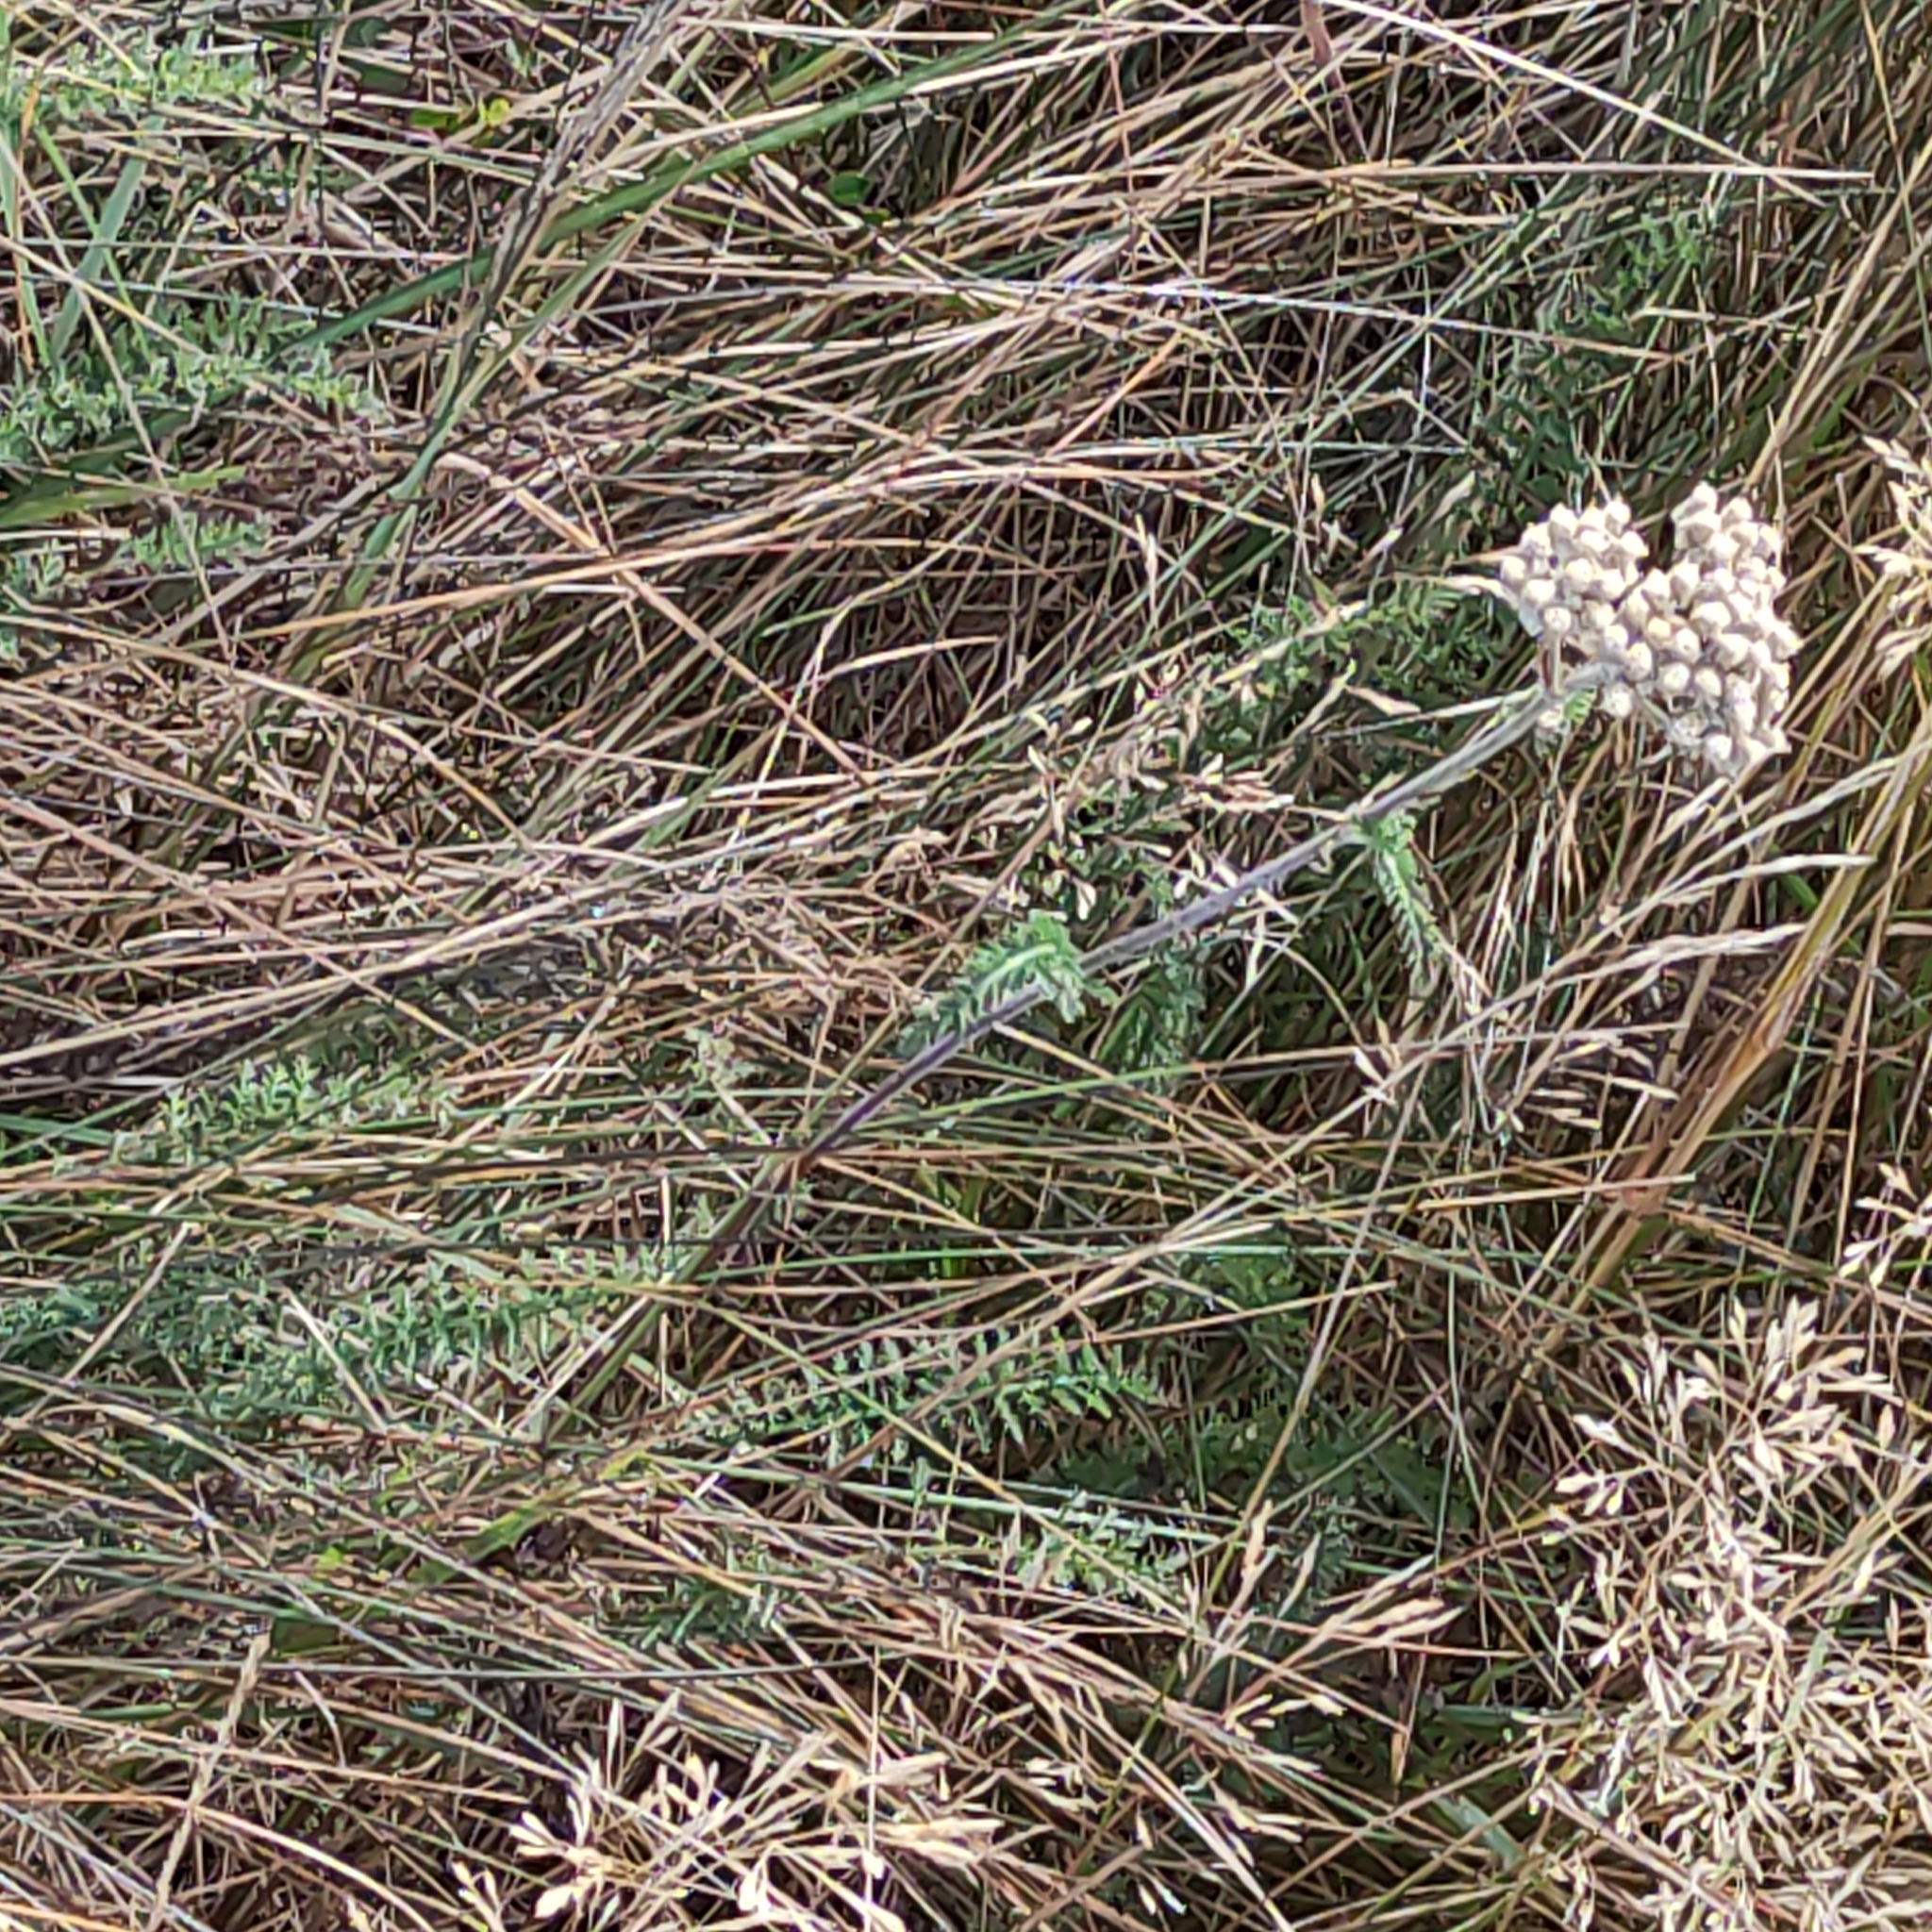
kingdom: Plantae
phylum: Tracheophyta
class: Magnoliopsida
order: Asterales
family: Asteraceae
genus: Achillea
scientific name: Achillea millefolium
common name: Yarrow
